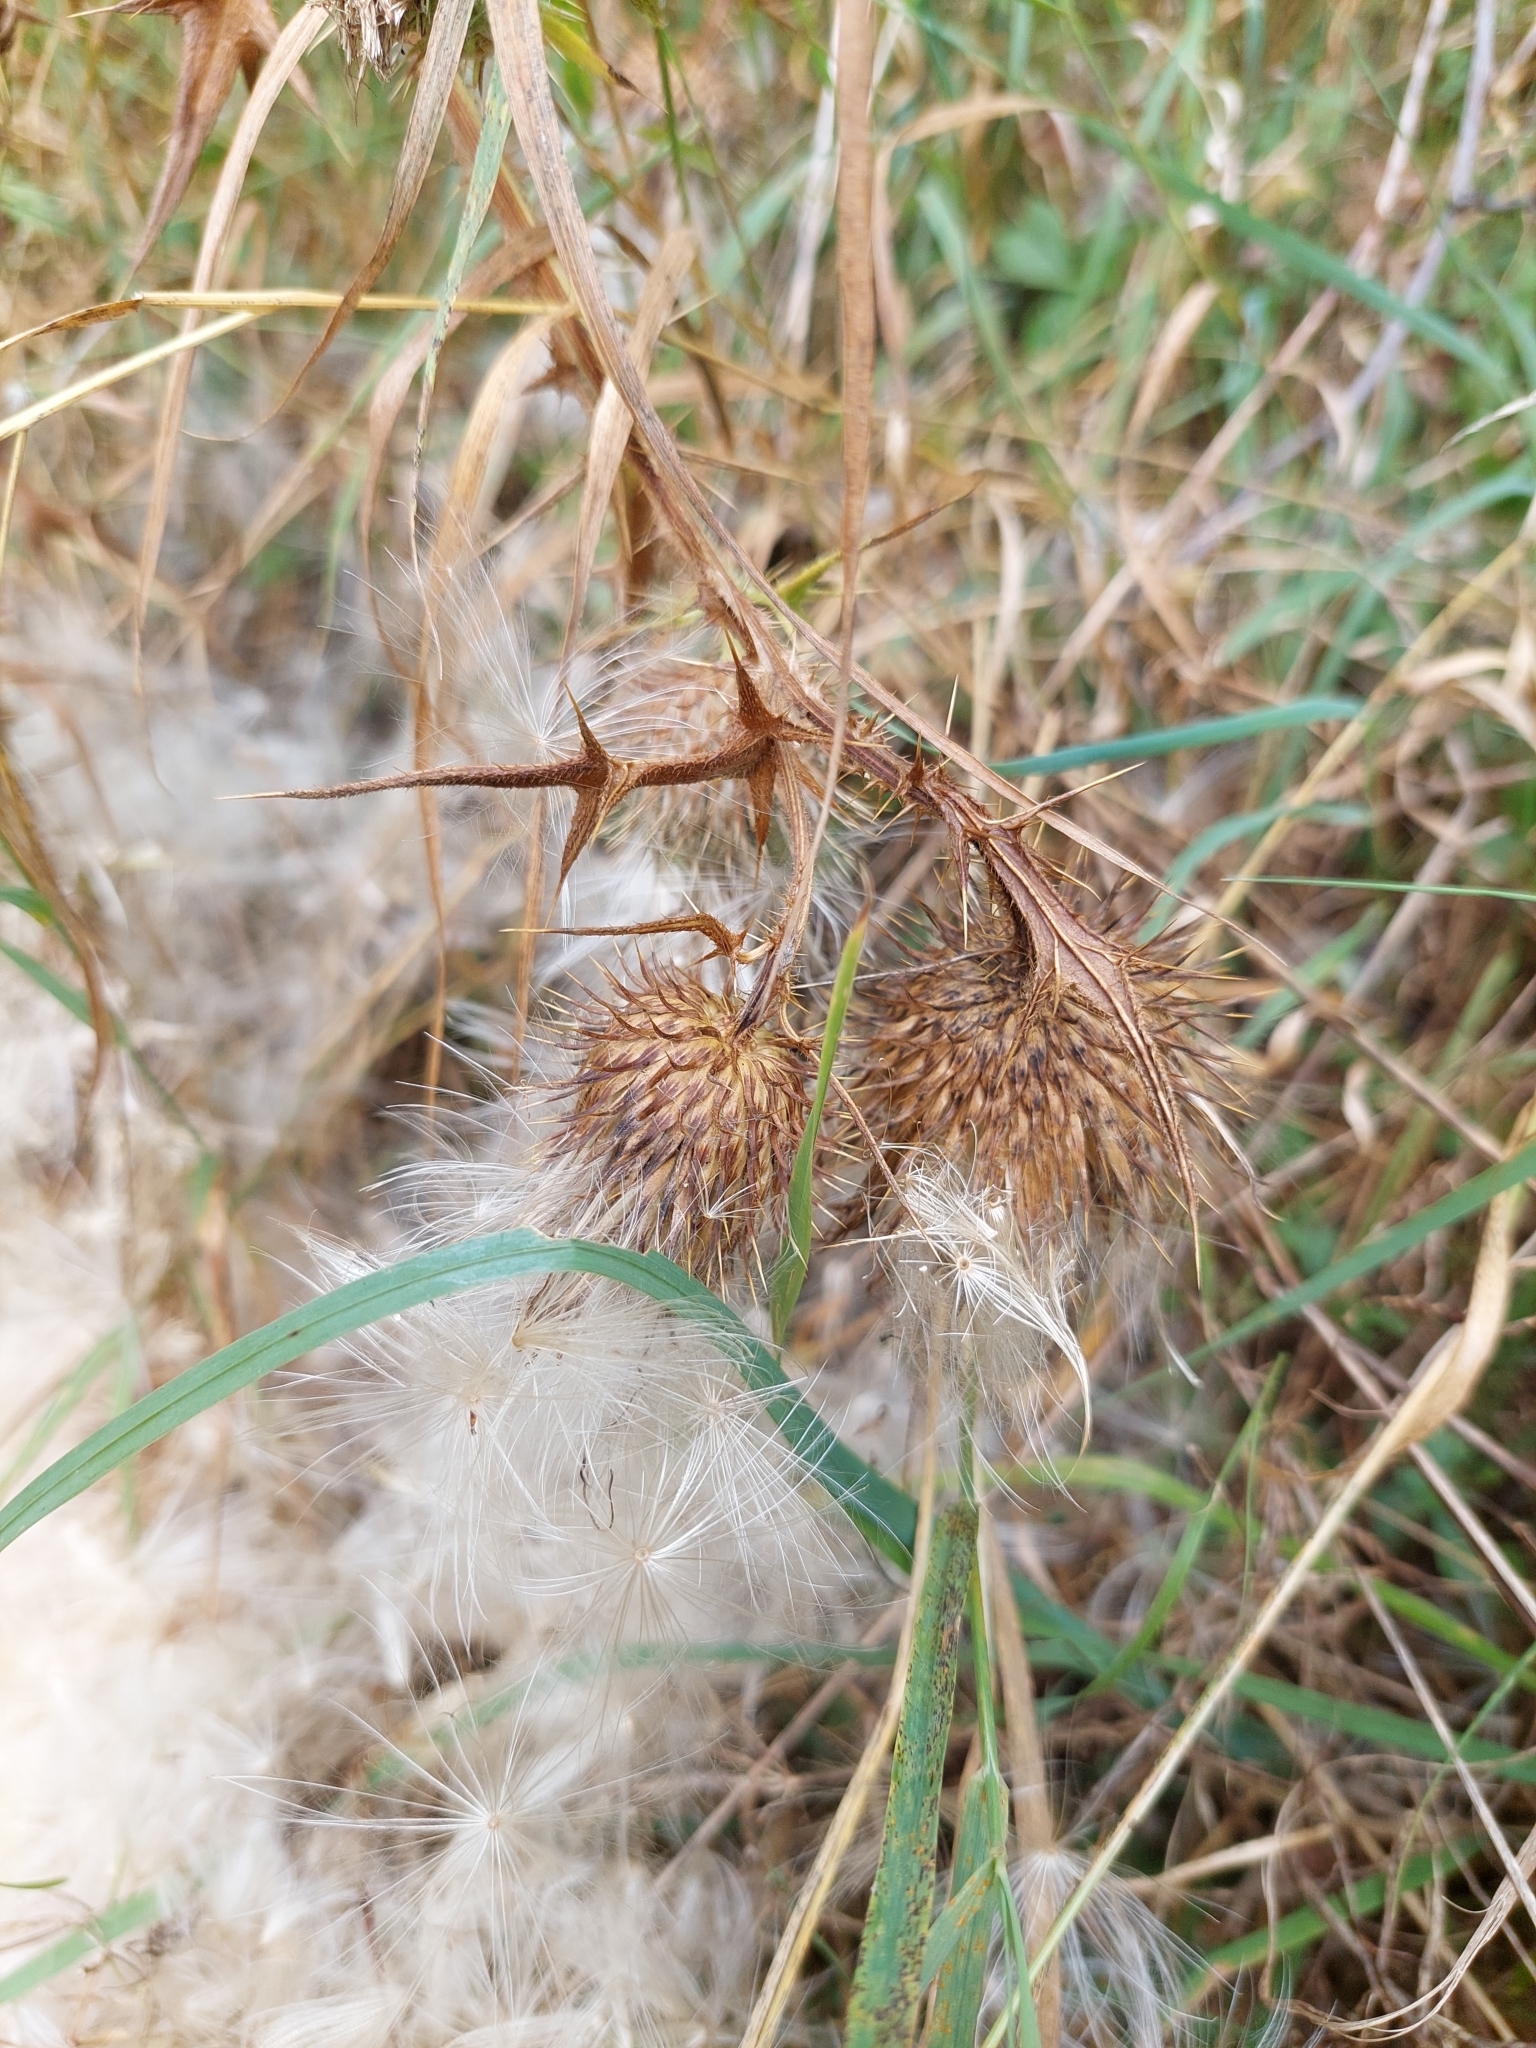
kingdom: Plantae
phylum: Tracheophyta
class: Magnoliopsida
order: Asterales
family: Asteraceae
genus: Cirsium
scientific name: Cirsium vulgare
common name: Bull thistle
